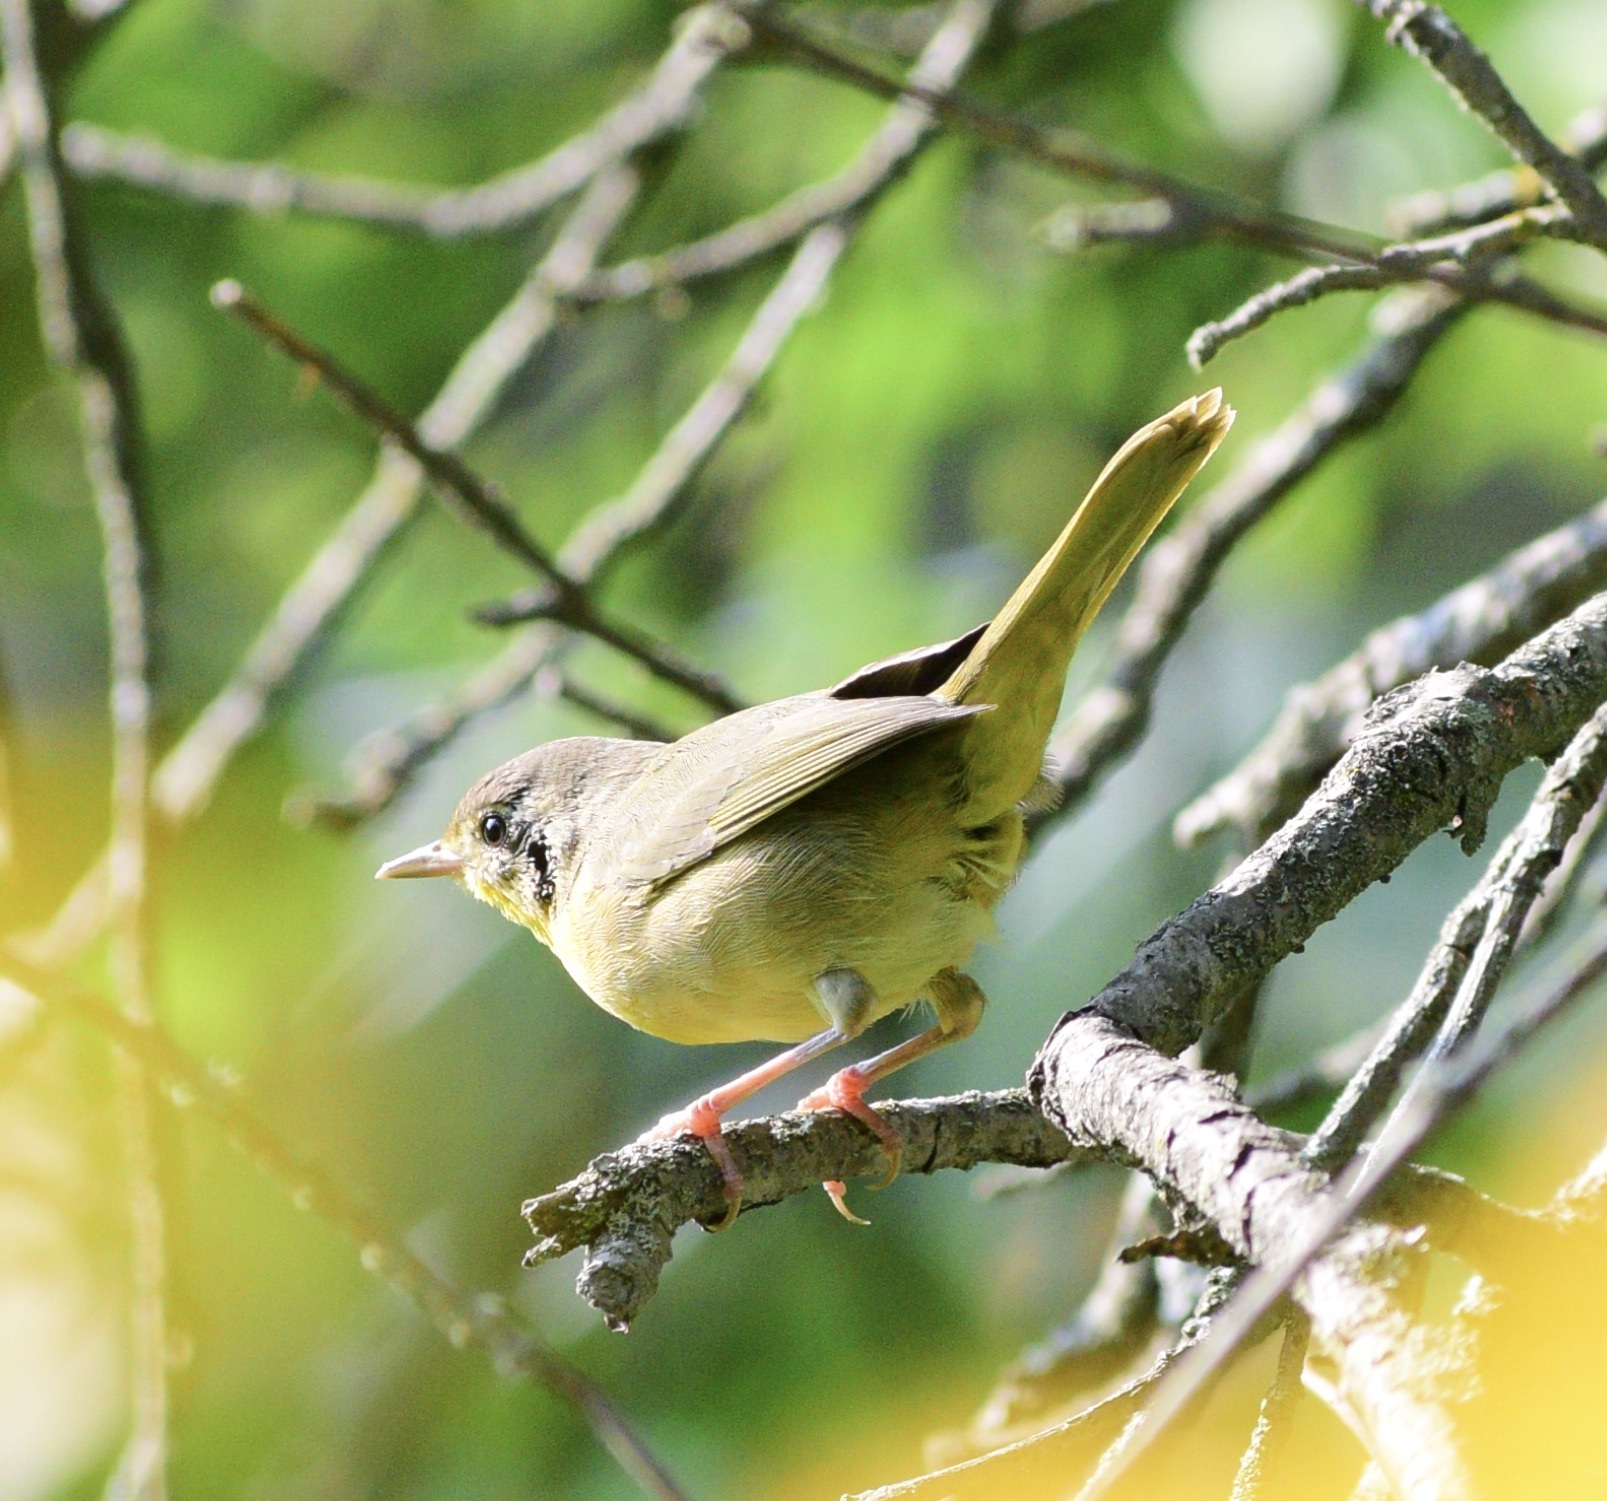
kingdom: Animalia
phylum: Chordata
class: Aves
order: Passeriformes
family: Parulidae
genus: Geothlypis
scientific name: Geothlypis trichas
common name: Common yellowthroat
